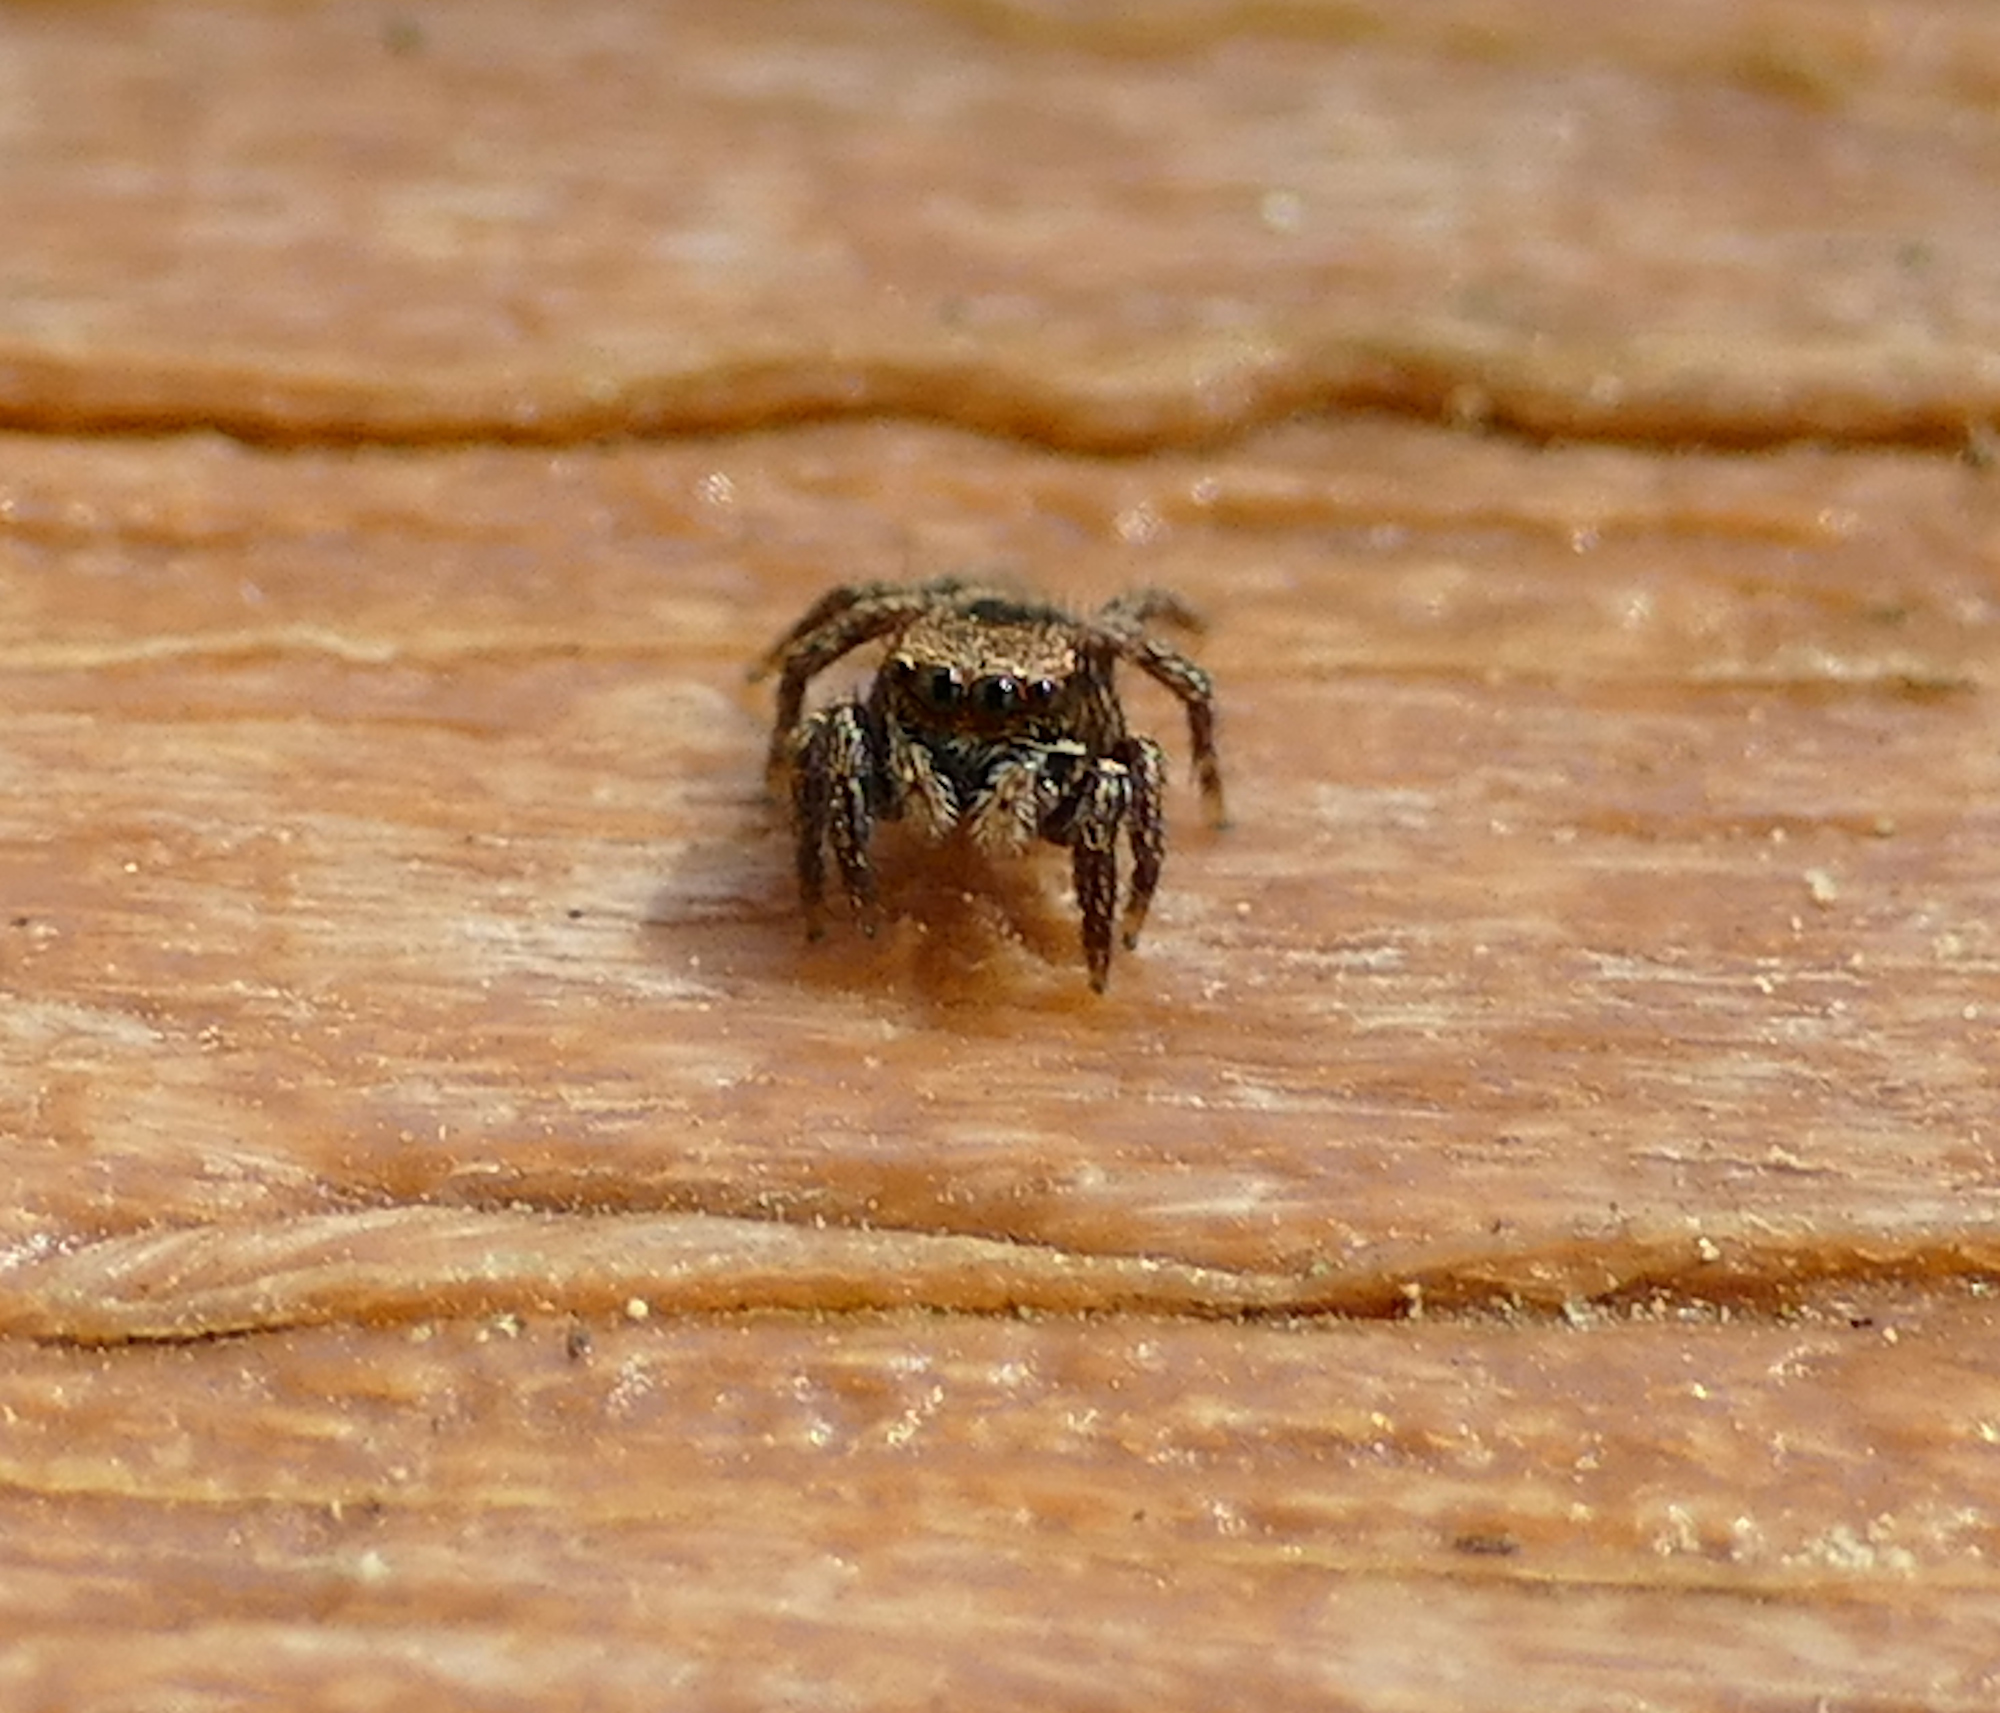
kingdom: Animalia
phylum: Arthropoda
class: Arachnida
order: Araneae
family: Salticidae
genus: Habronattus
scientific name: Habronattus coecatus
